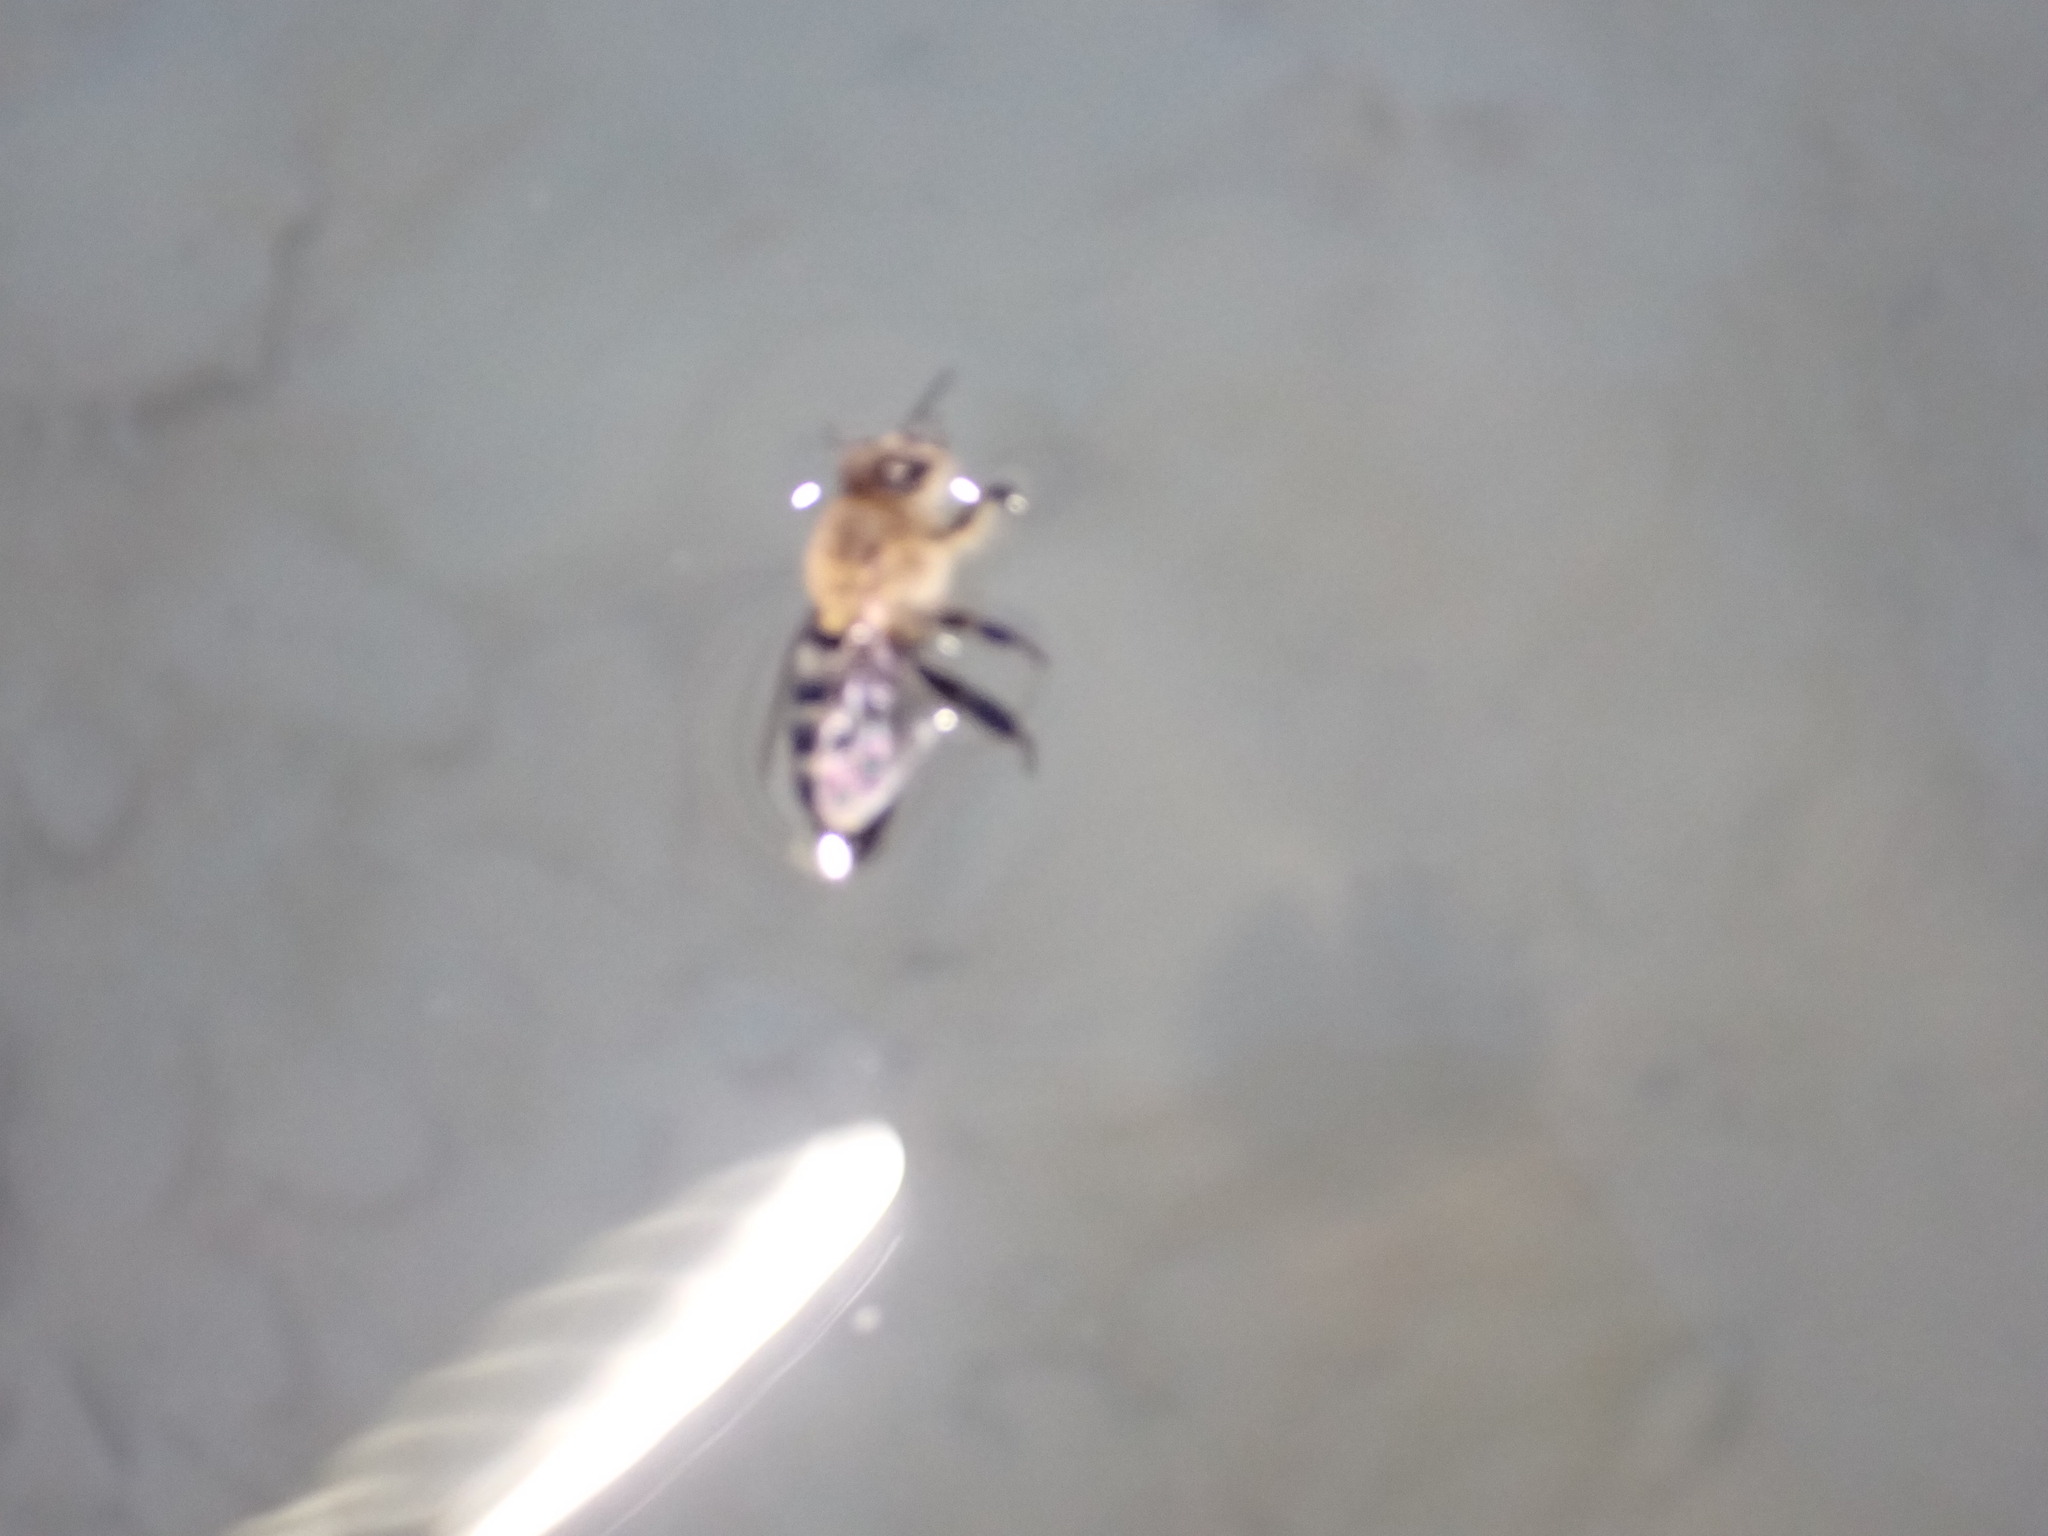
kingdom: Animalia
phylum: Arthropoda
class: Insecta
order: Hymenoptera
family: Apidae
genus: Apis
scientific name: Apis mellifera
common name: Honey bee
